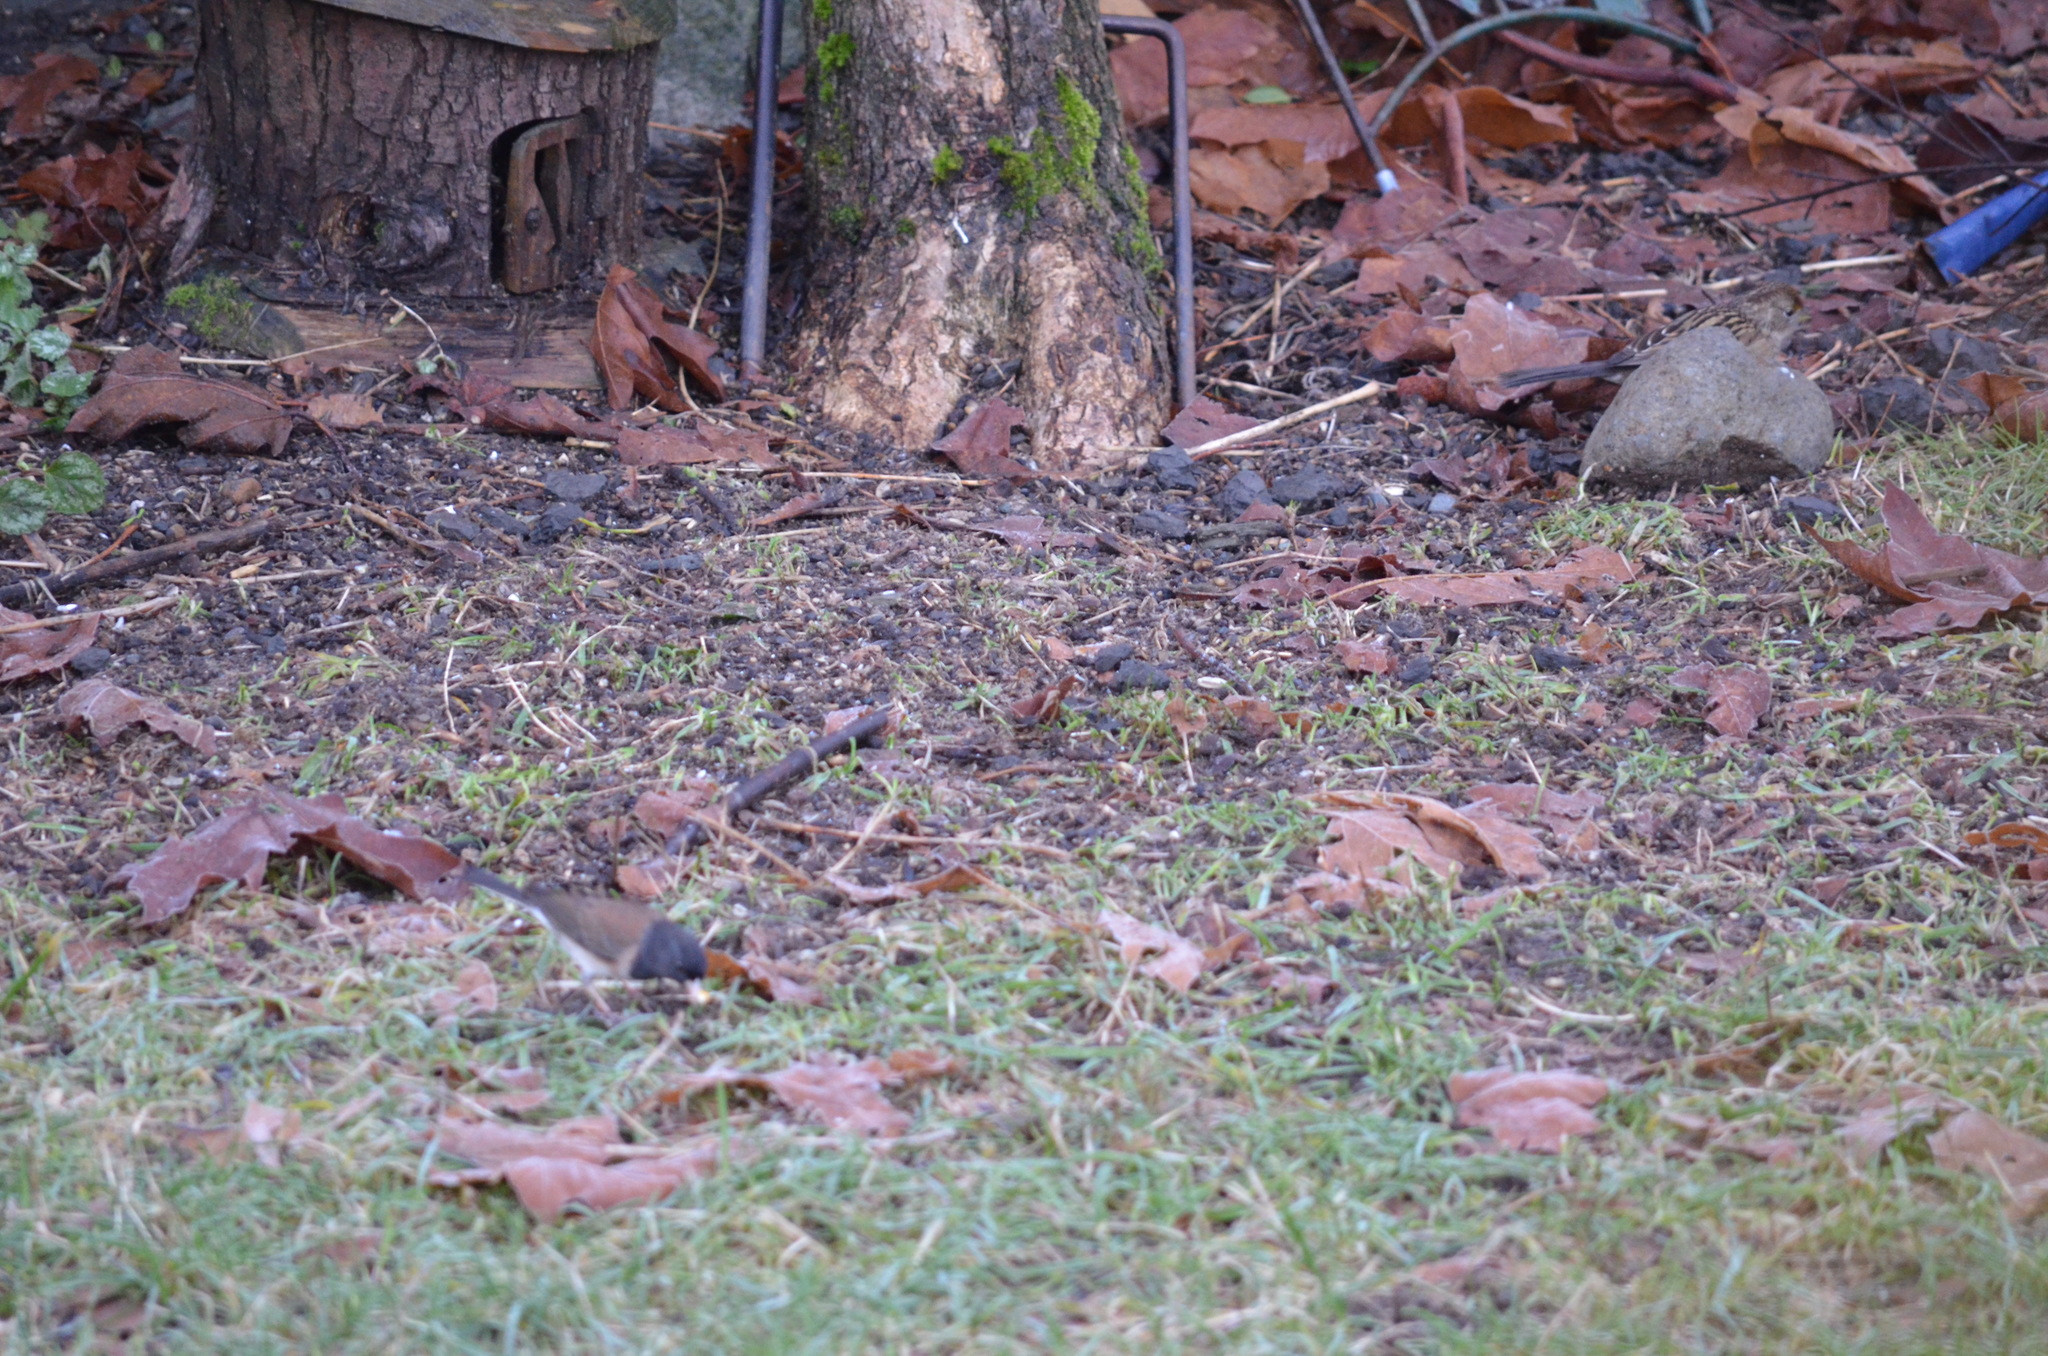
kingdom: Animalia
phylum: Chordata
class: Aves
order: Passeriformes
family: Passerellidae
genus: Junco
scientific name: Junco hyemalis
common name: Dark-eyed junco
